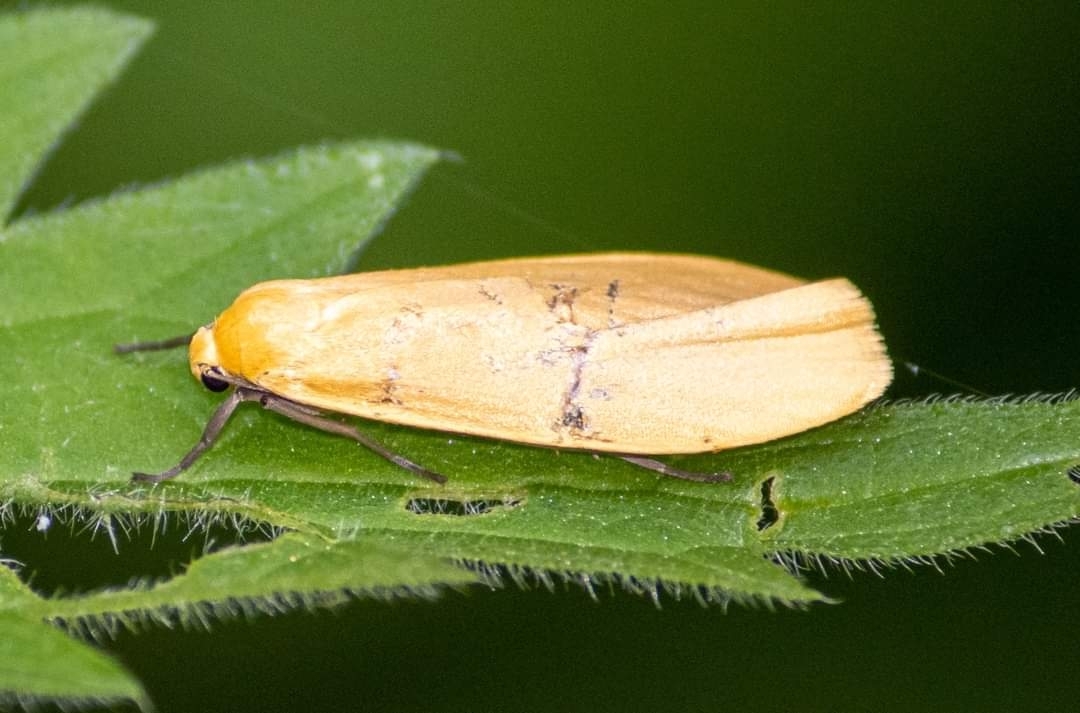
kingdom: Animalia
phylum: Arthropoda
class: Insecta
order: Lepidoptera
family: Erebidae
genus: Wittia
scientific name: Wittia sororcula
